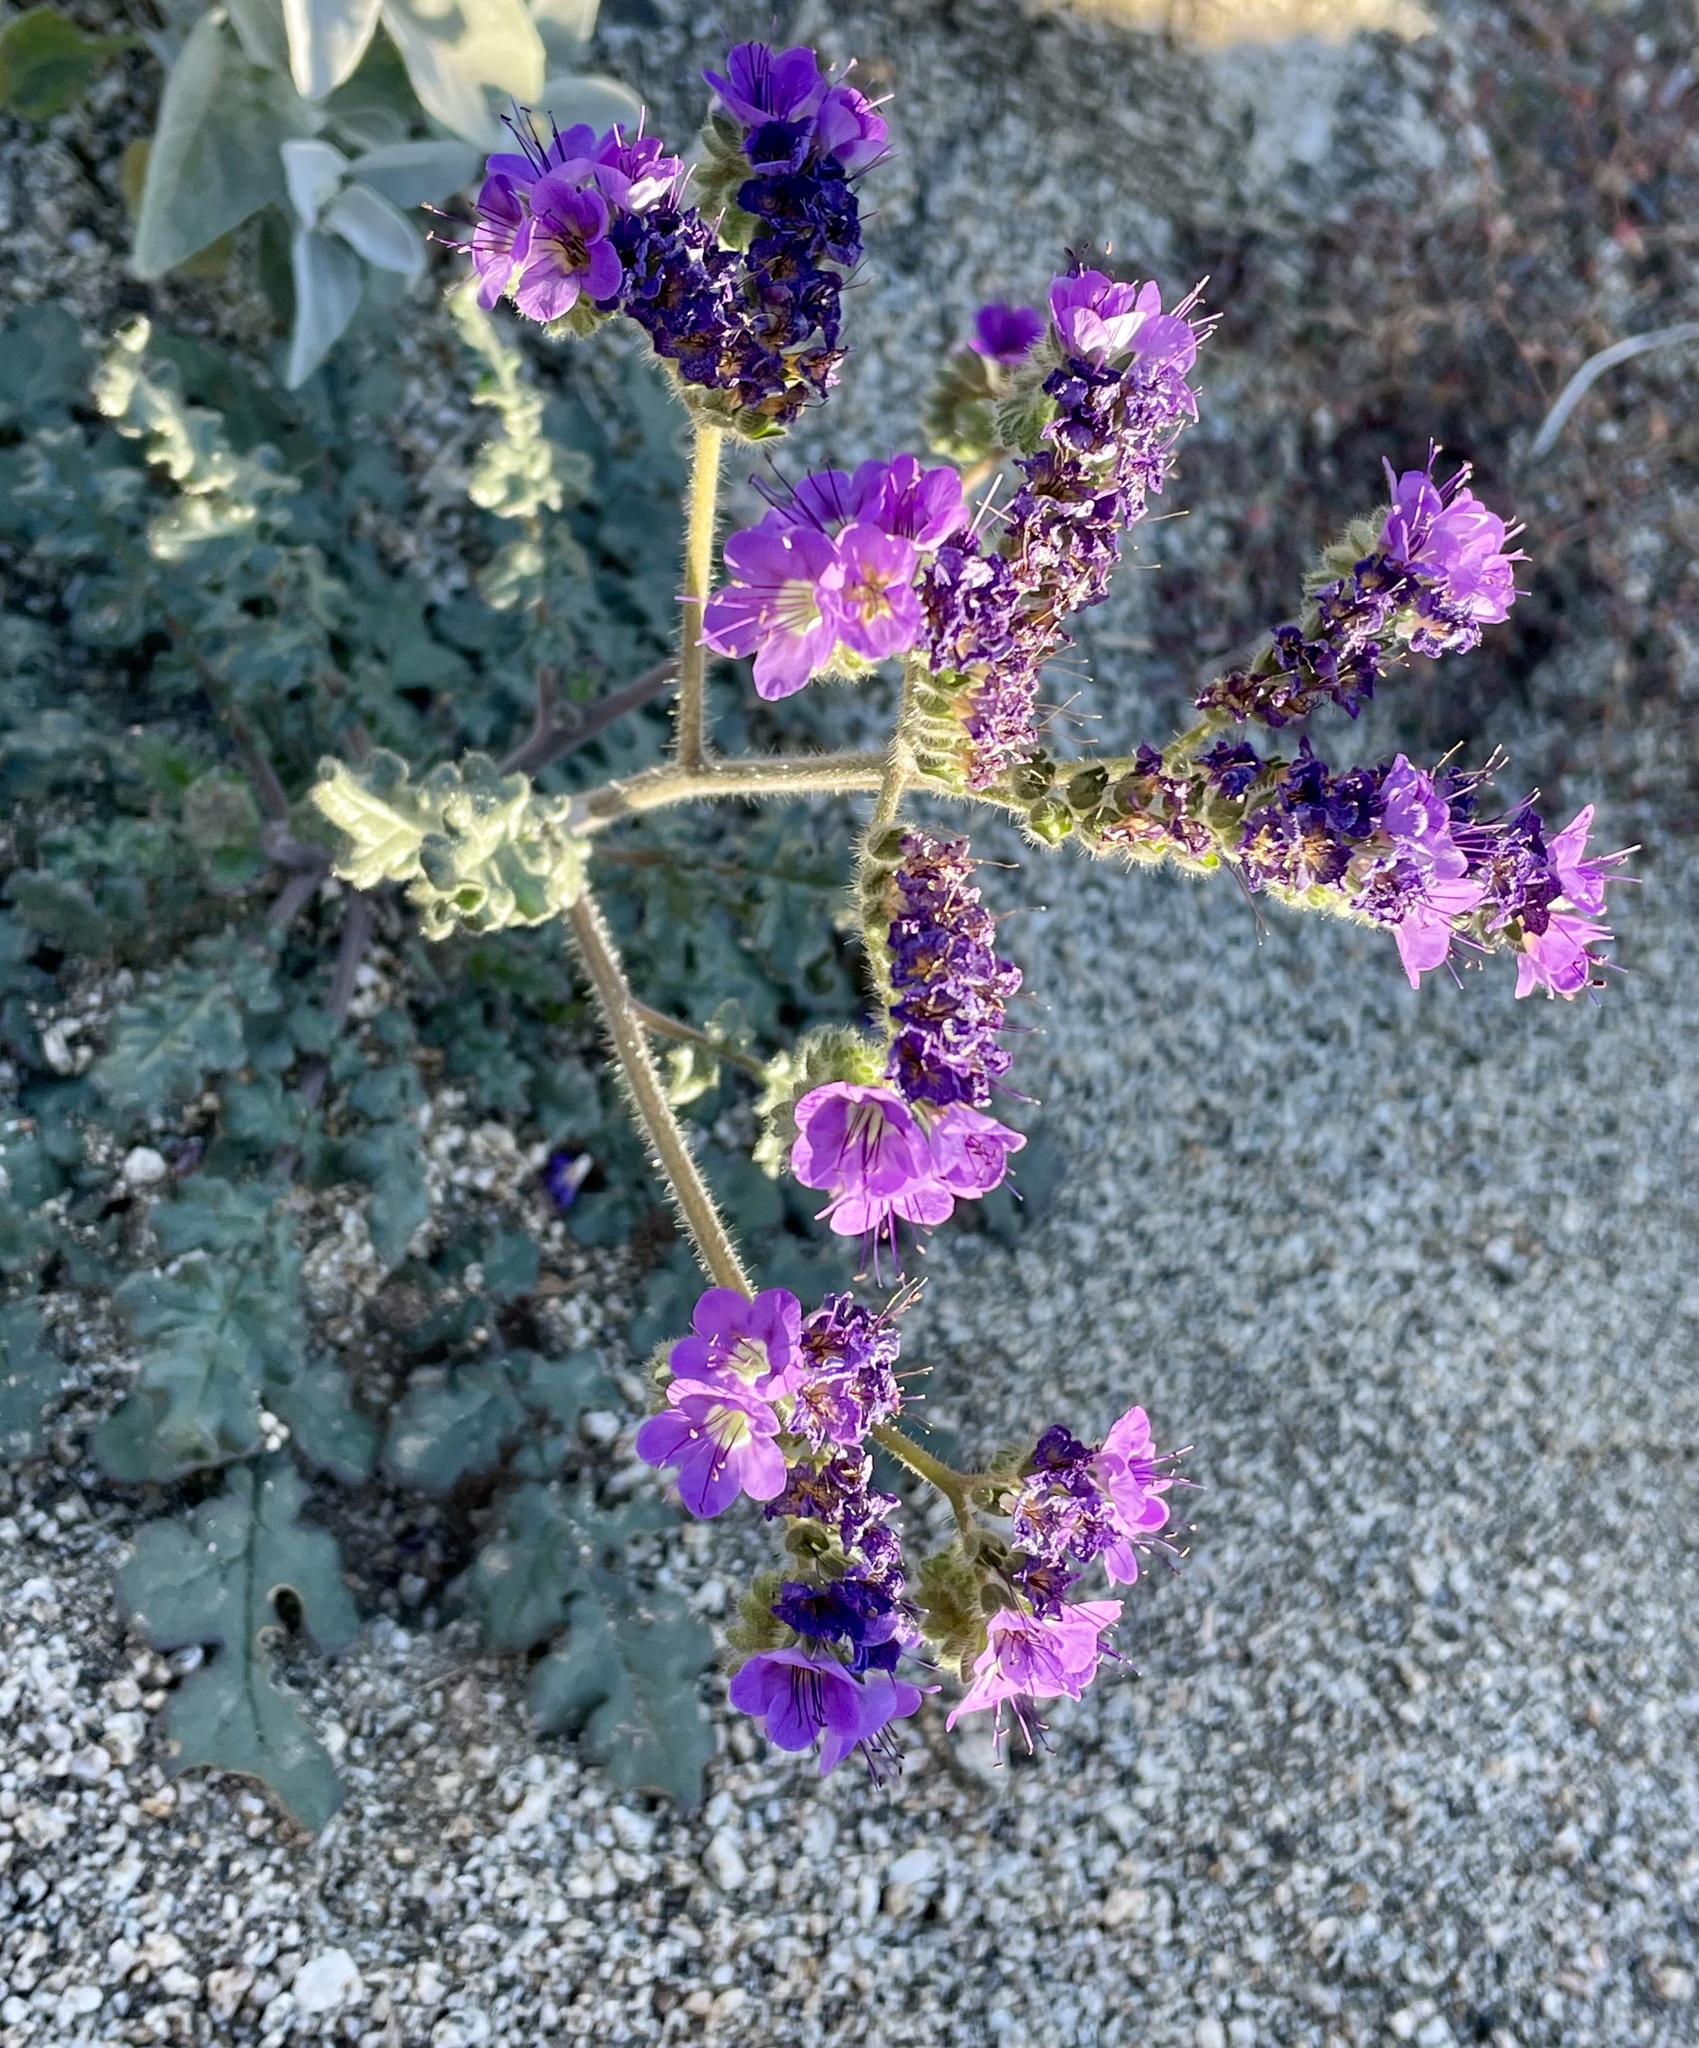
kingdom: Plantae
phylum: Tracheophyta
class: Magnoliopsida
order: Boraginales
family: Hydrophyllaceae
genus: Phacelia
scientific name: Phacelia crenulata
